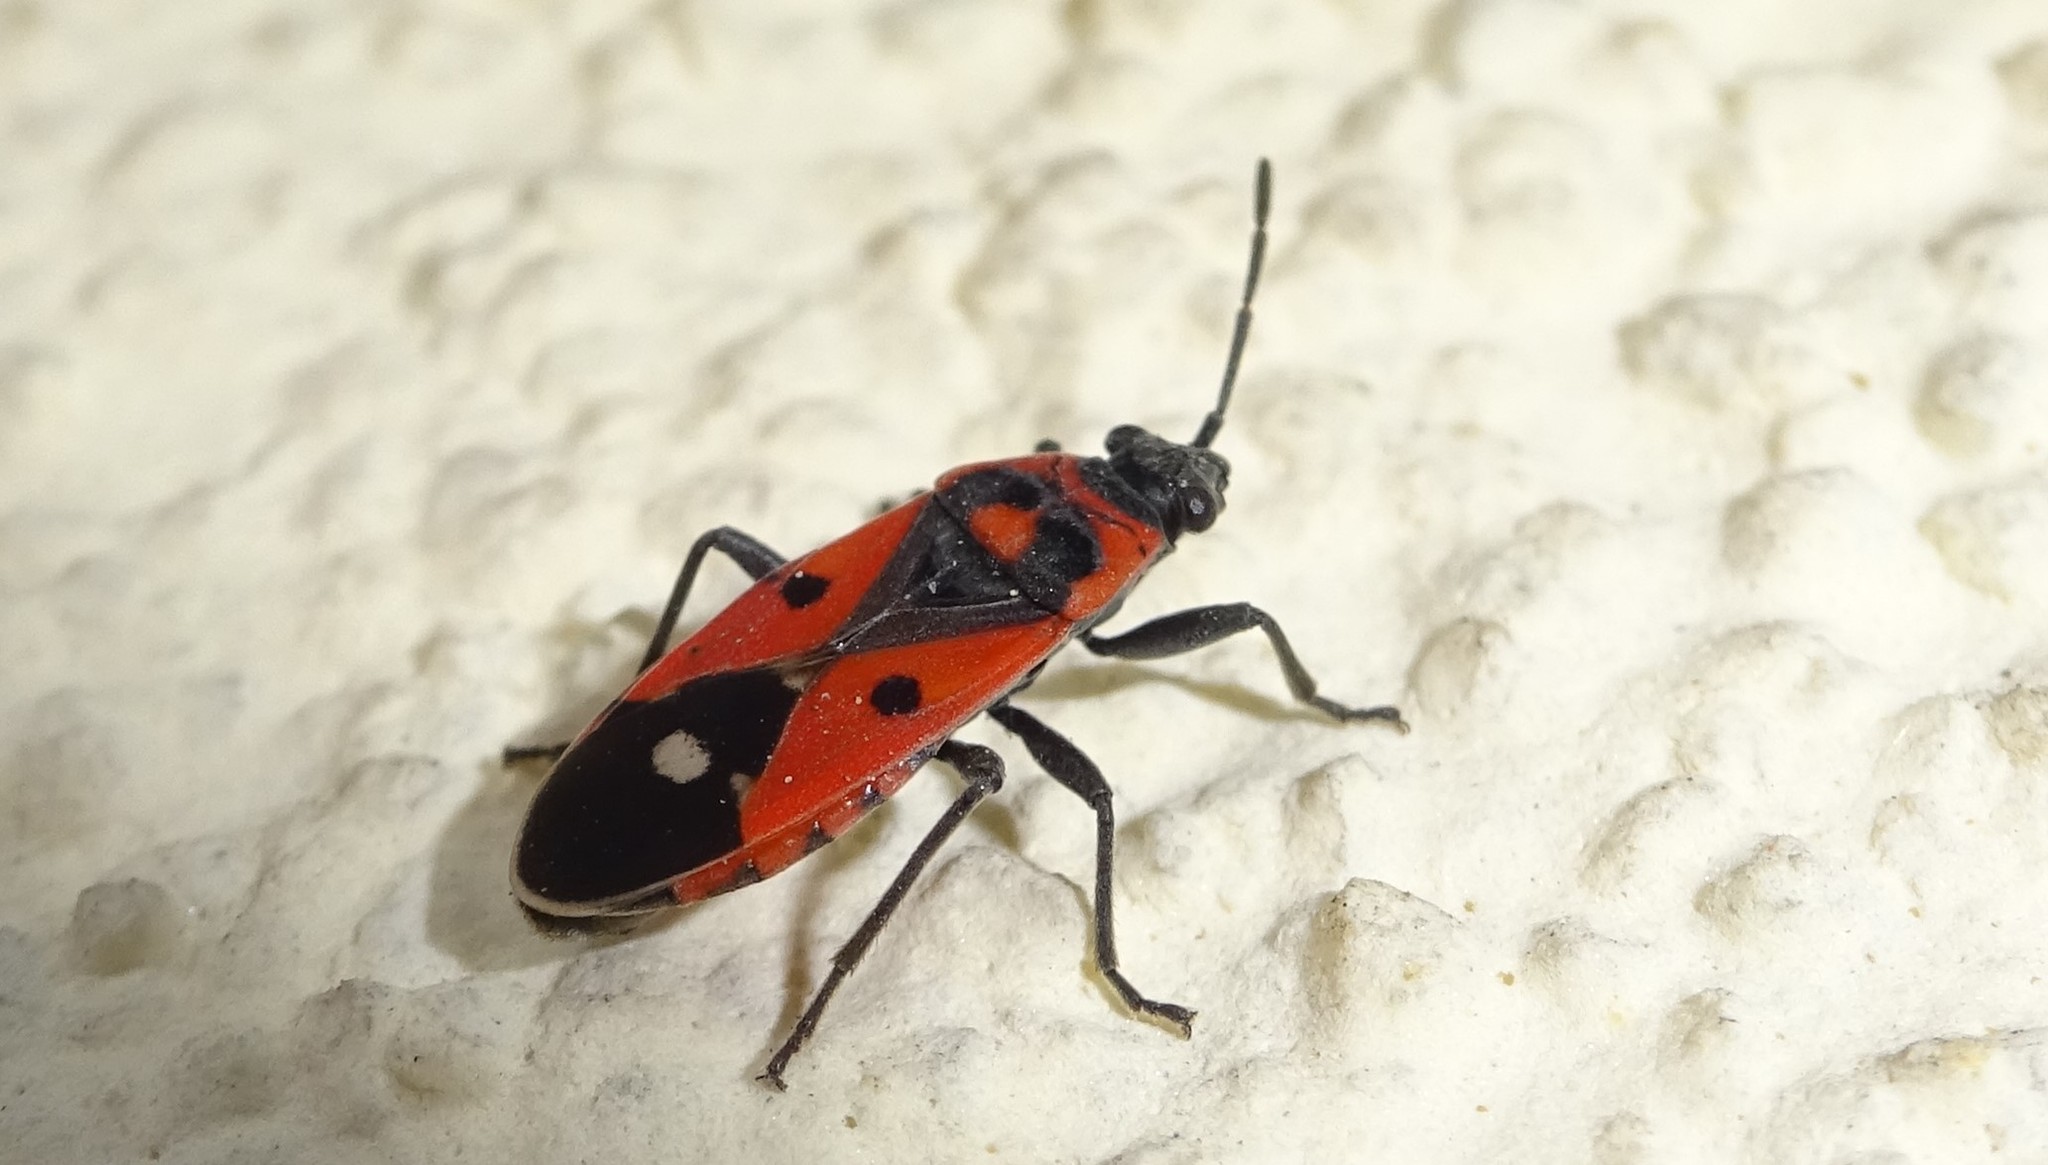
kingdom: Animalia
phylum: Arthropoda
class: Insecta
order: Hemiptera
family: Lygaeidae
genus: Melanocoryphus
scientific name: Melanocoryphus albomaculatus
